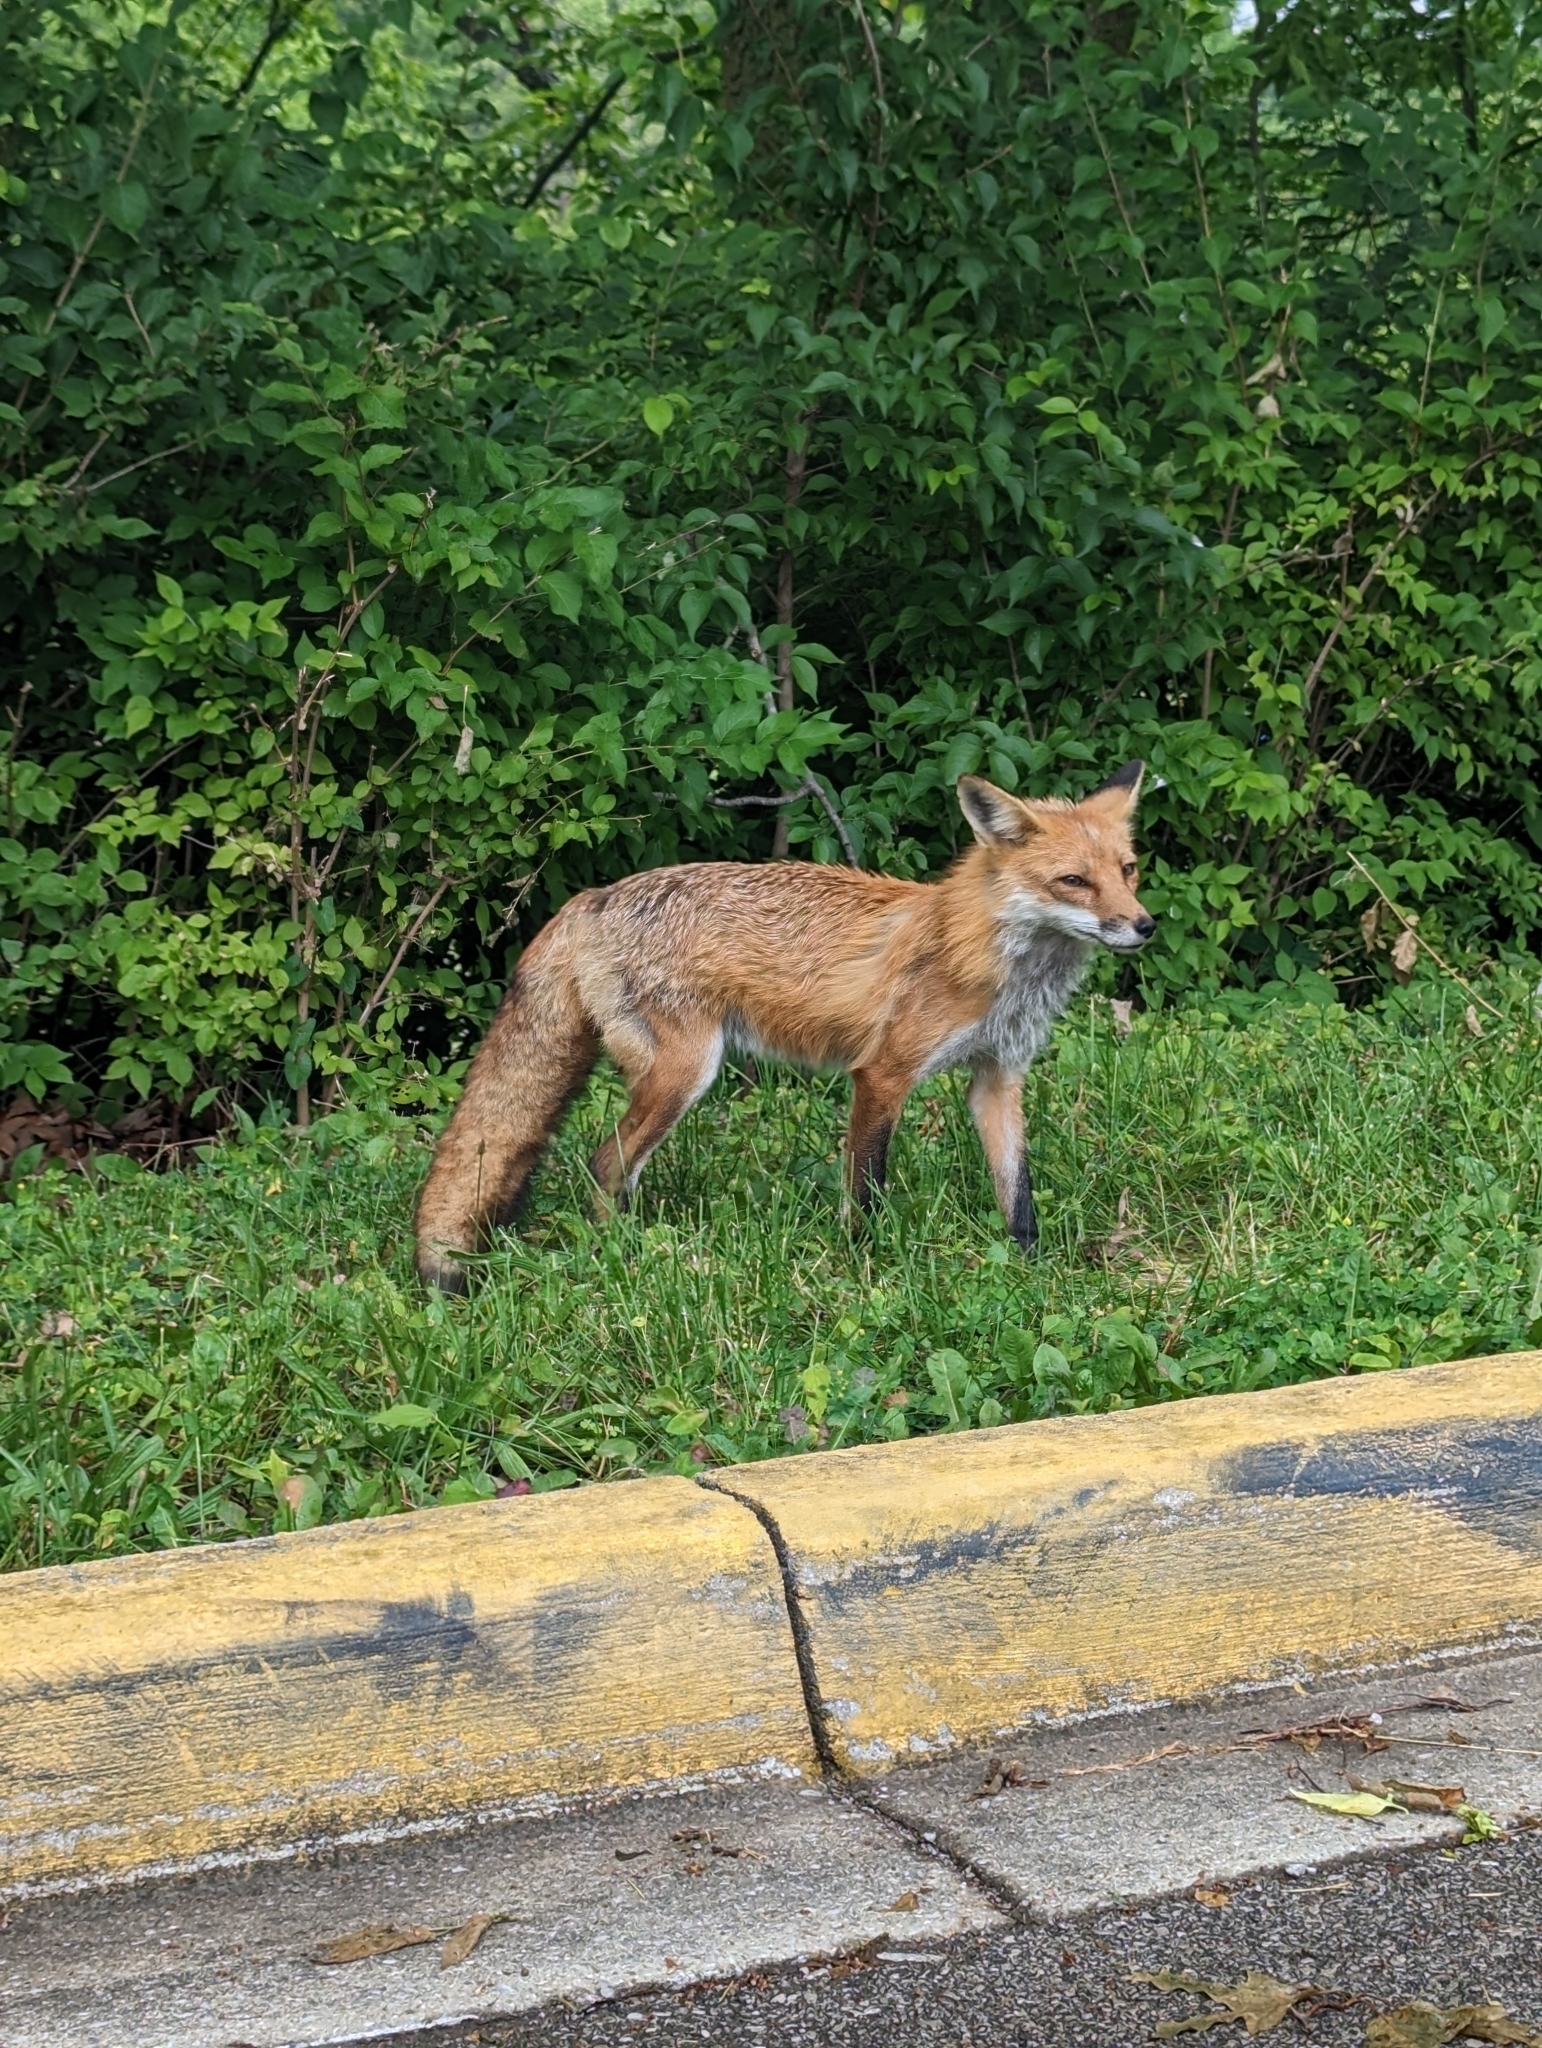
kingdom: Animalia
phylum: Chordata
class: Mammalia
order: Carnivora
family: Canidae
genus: Vulpes
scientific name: Vulpes vulpes
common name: Red fox
